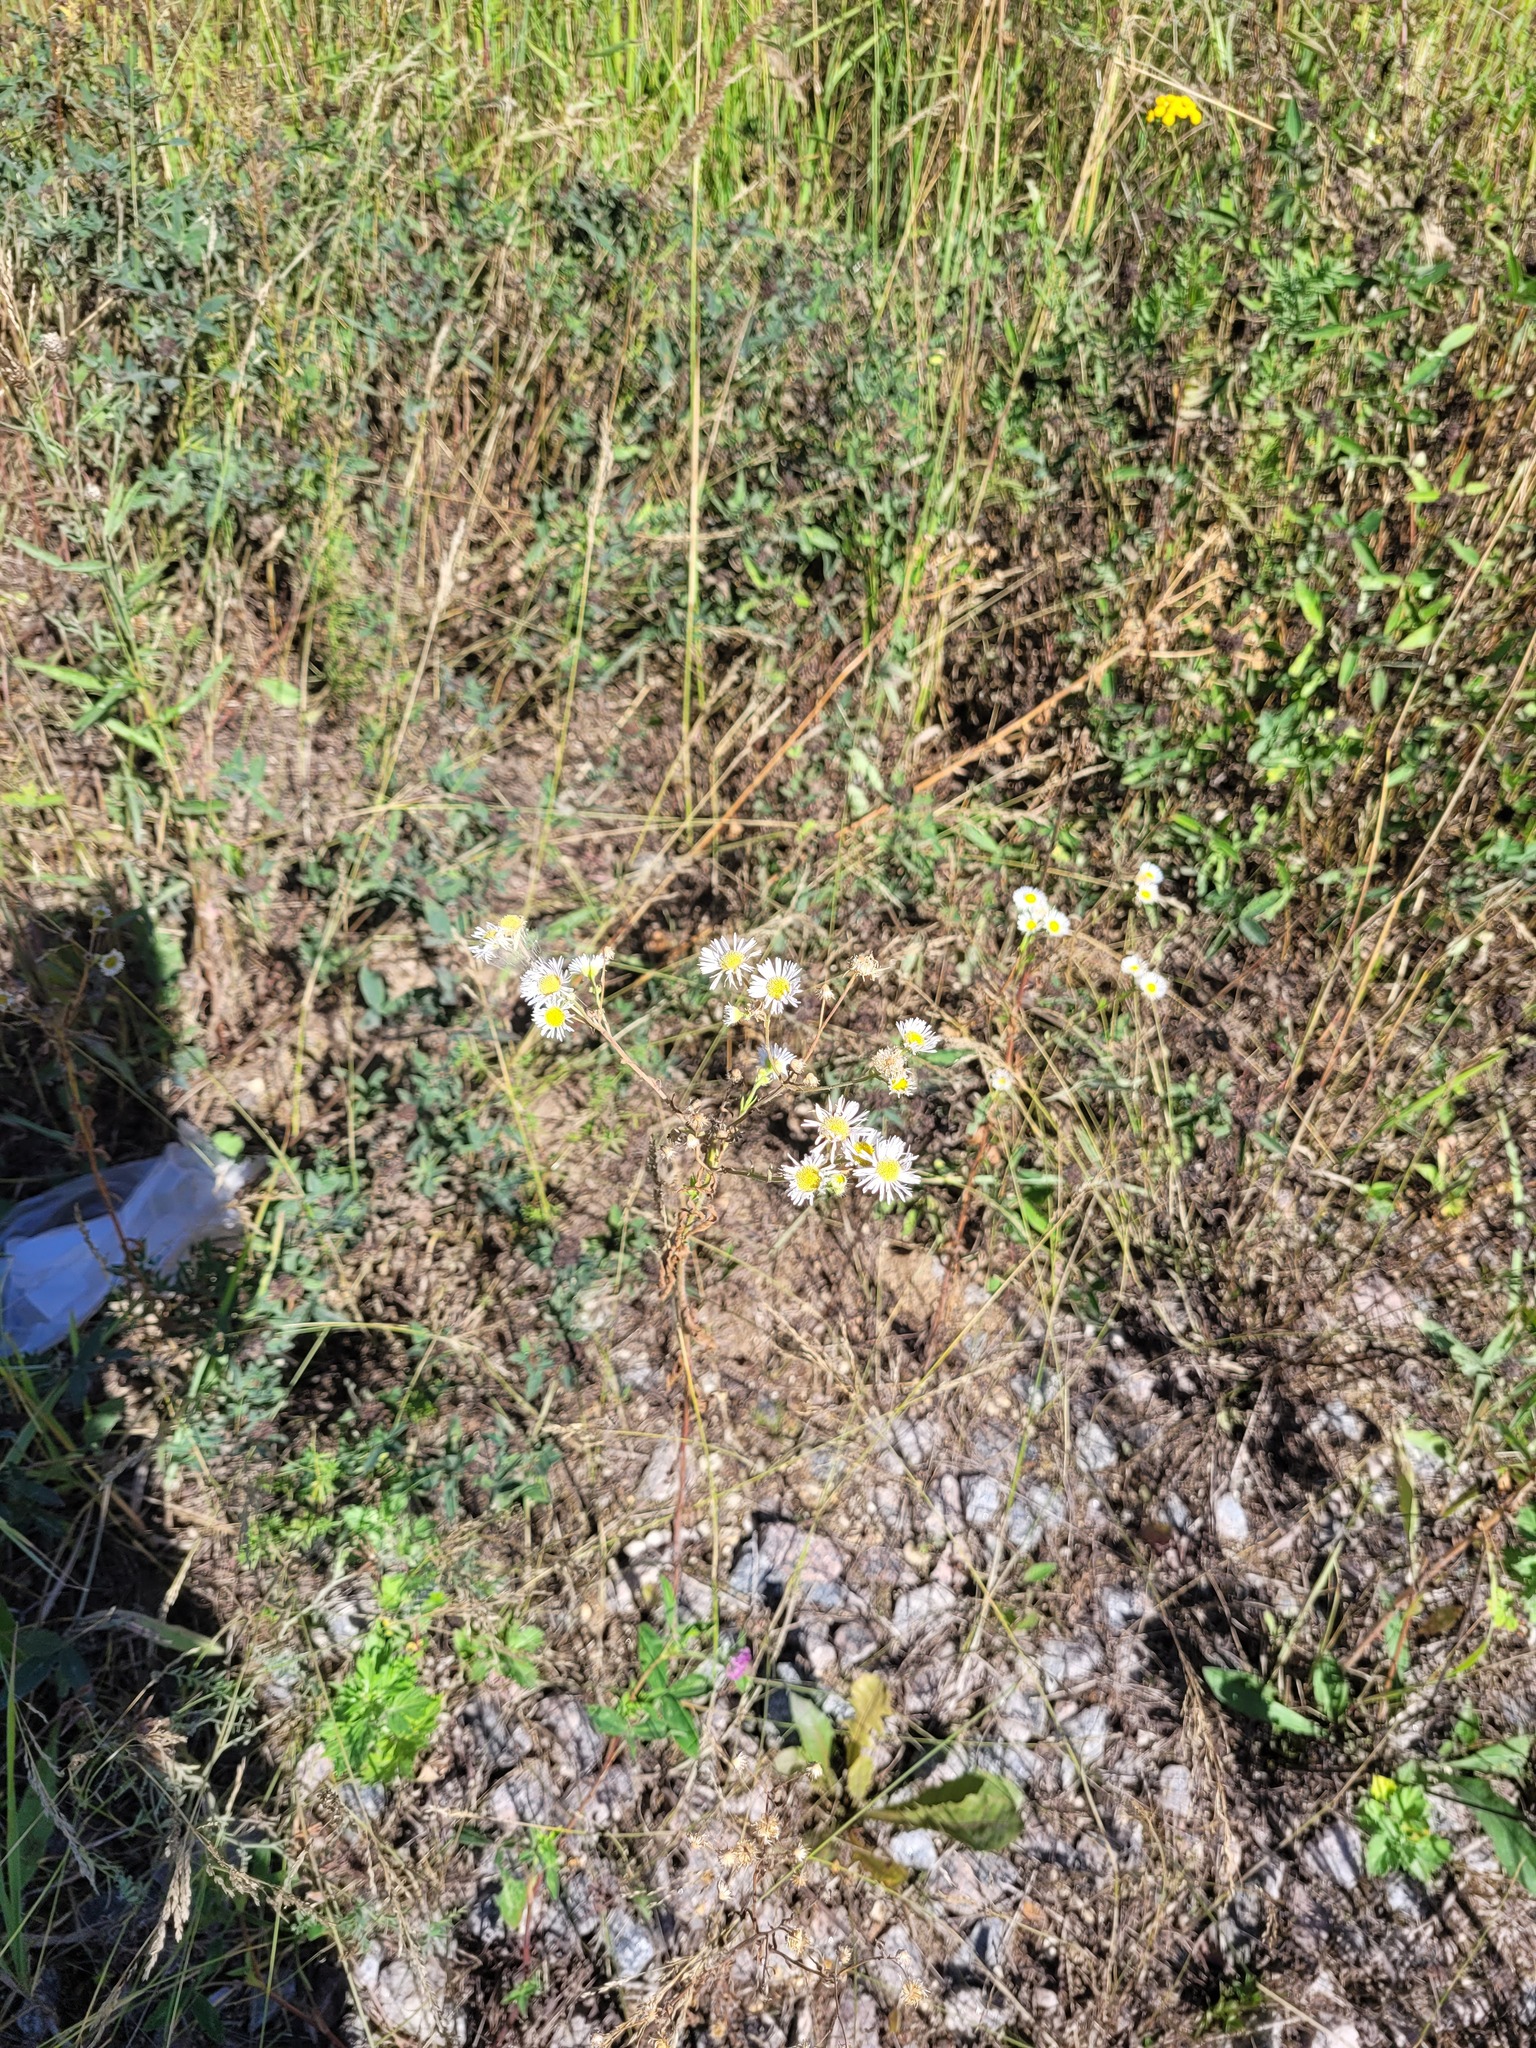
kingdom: Plantae
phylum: Tracheophyta
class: Magnoliopsida
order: Asterales
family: Asteraceae
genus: Erigeron
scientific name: Erigeron annuus
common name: Tall fleabane
